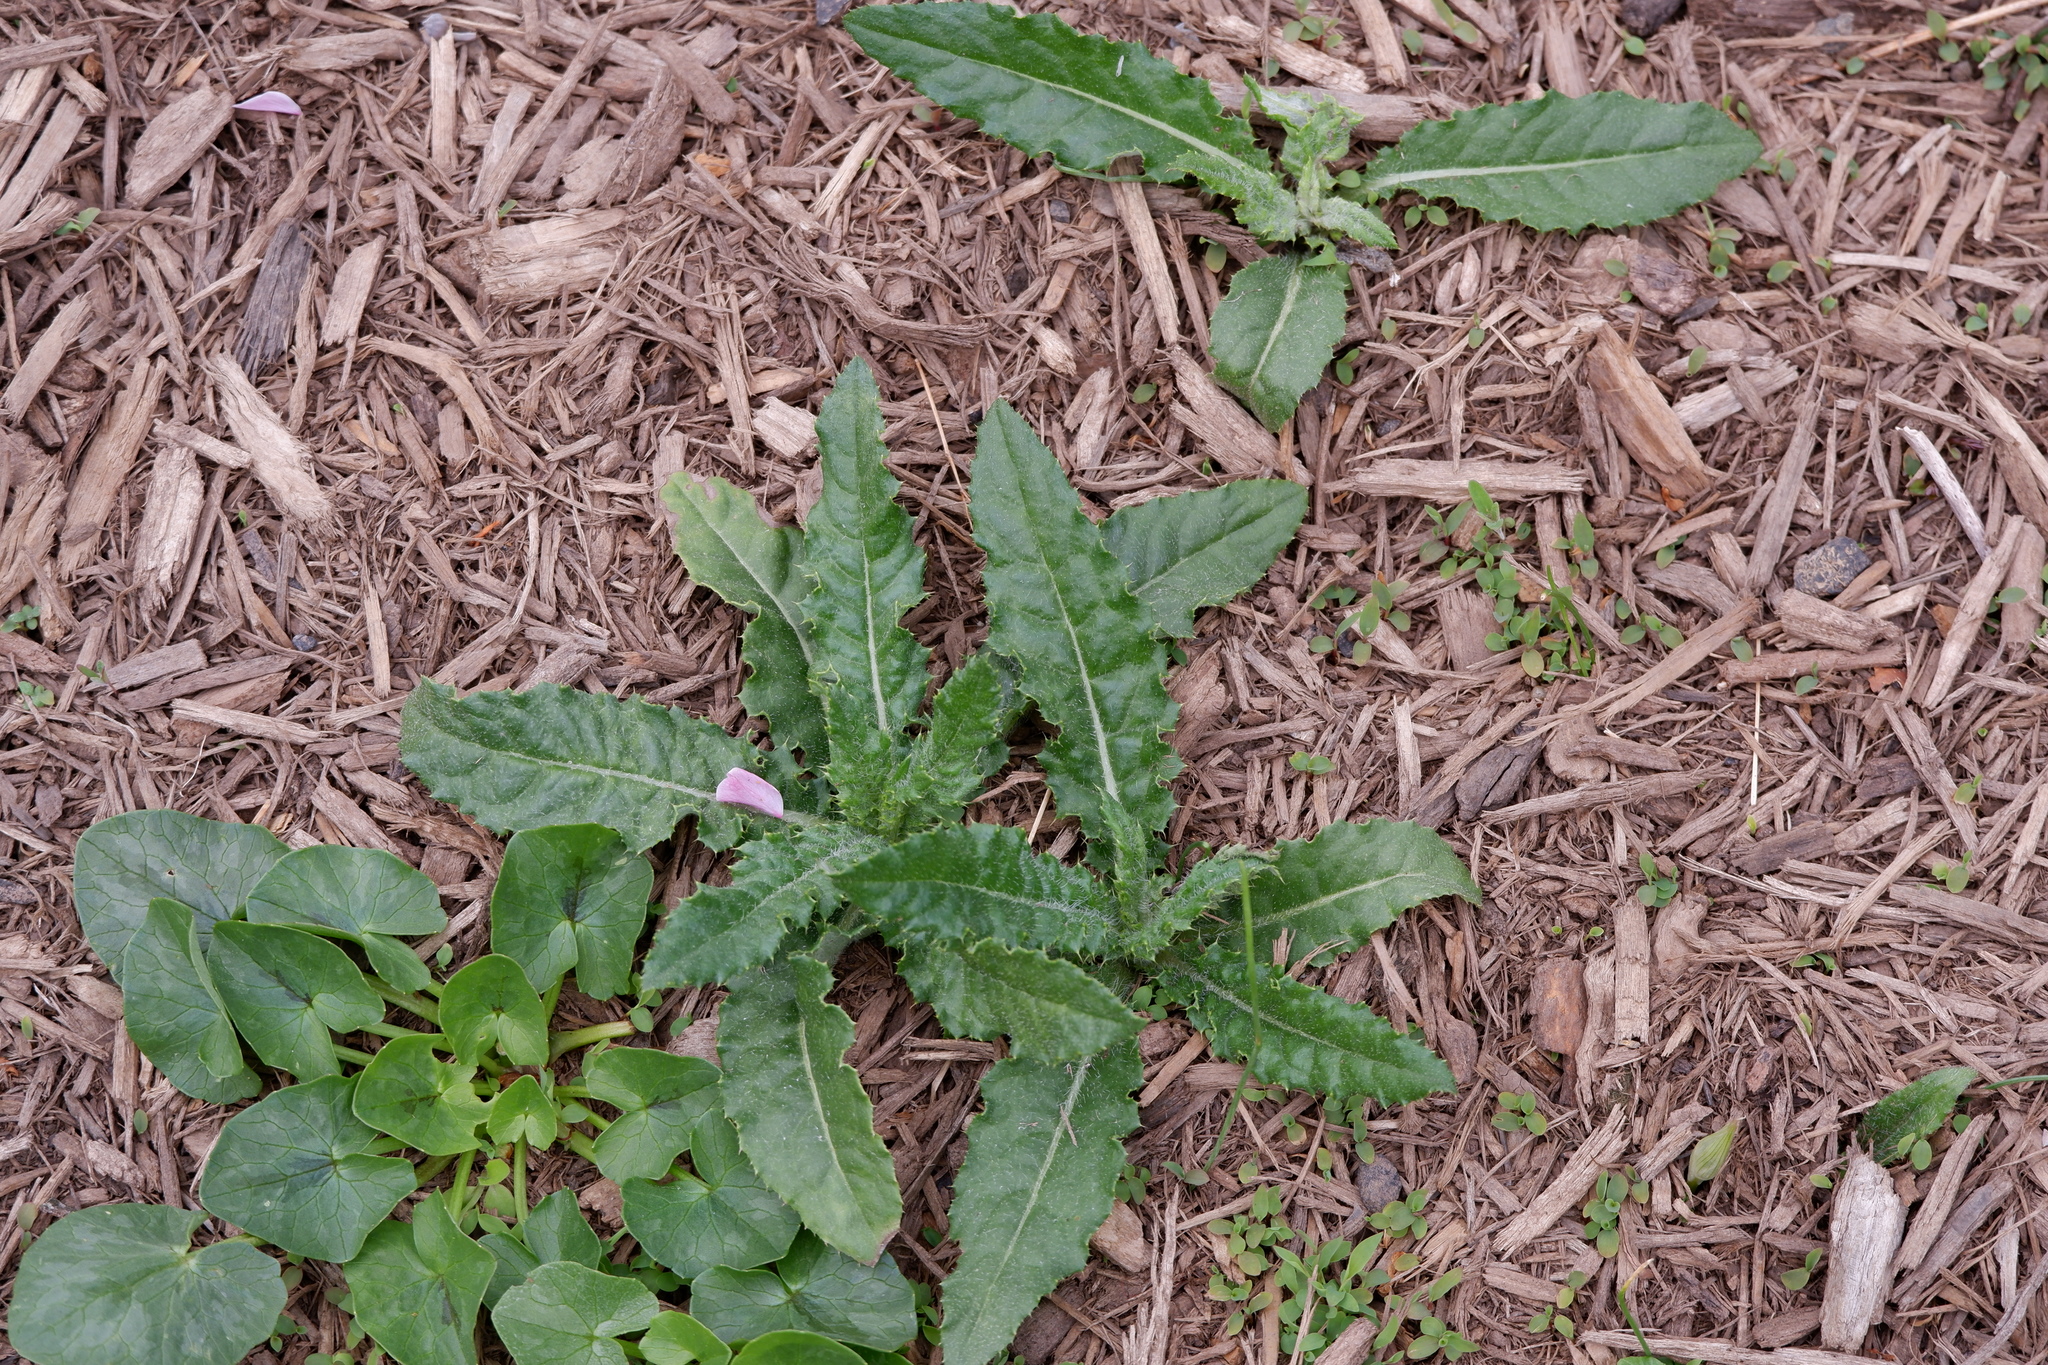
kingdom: Plantae
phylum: Tracheophyta
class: Magnoliopsida
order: Asterales
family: Asteraceae
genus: Cirsium
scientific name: Cirsium arvense
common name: Creeping thistle
